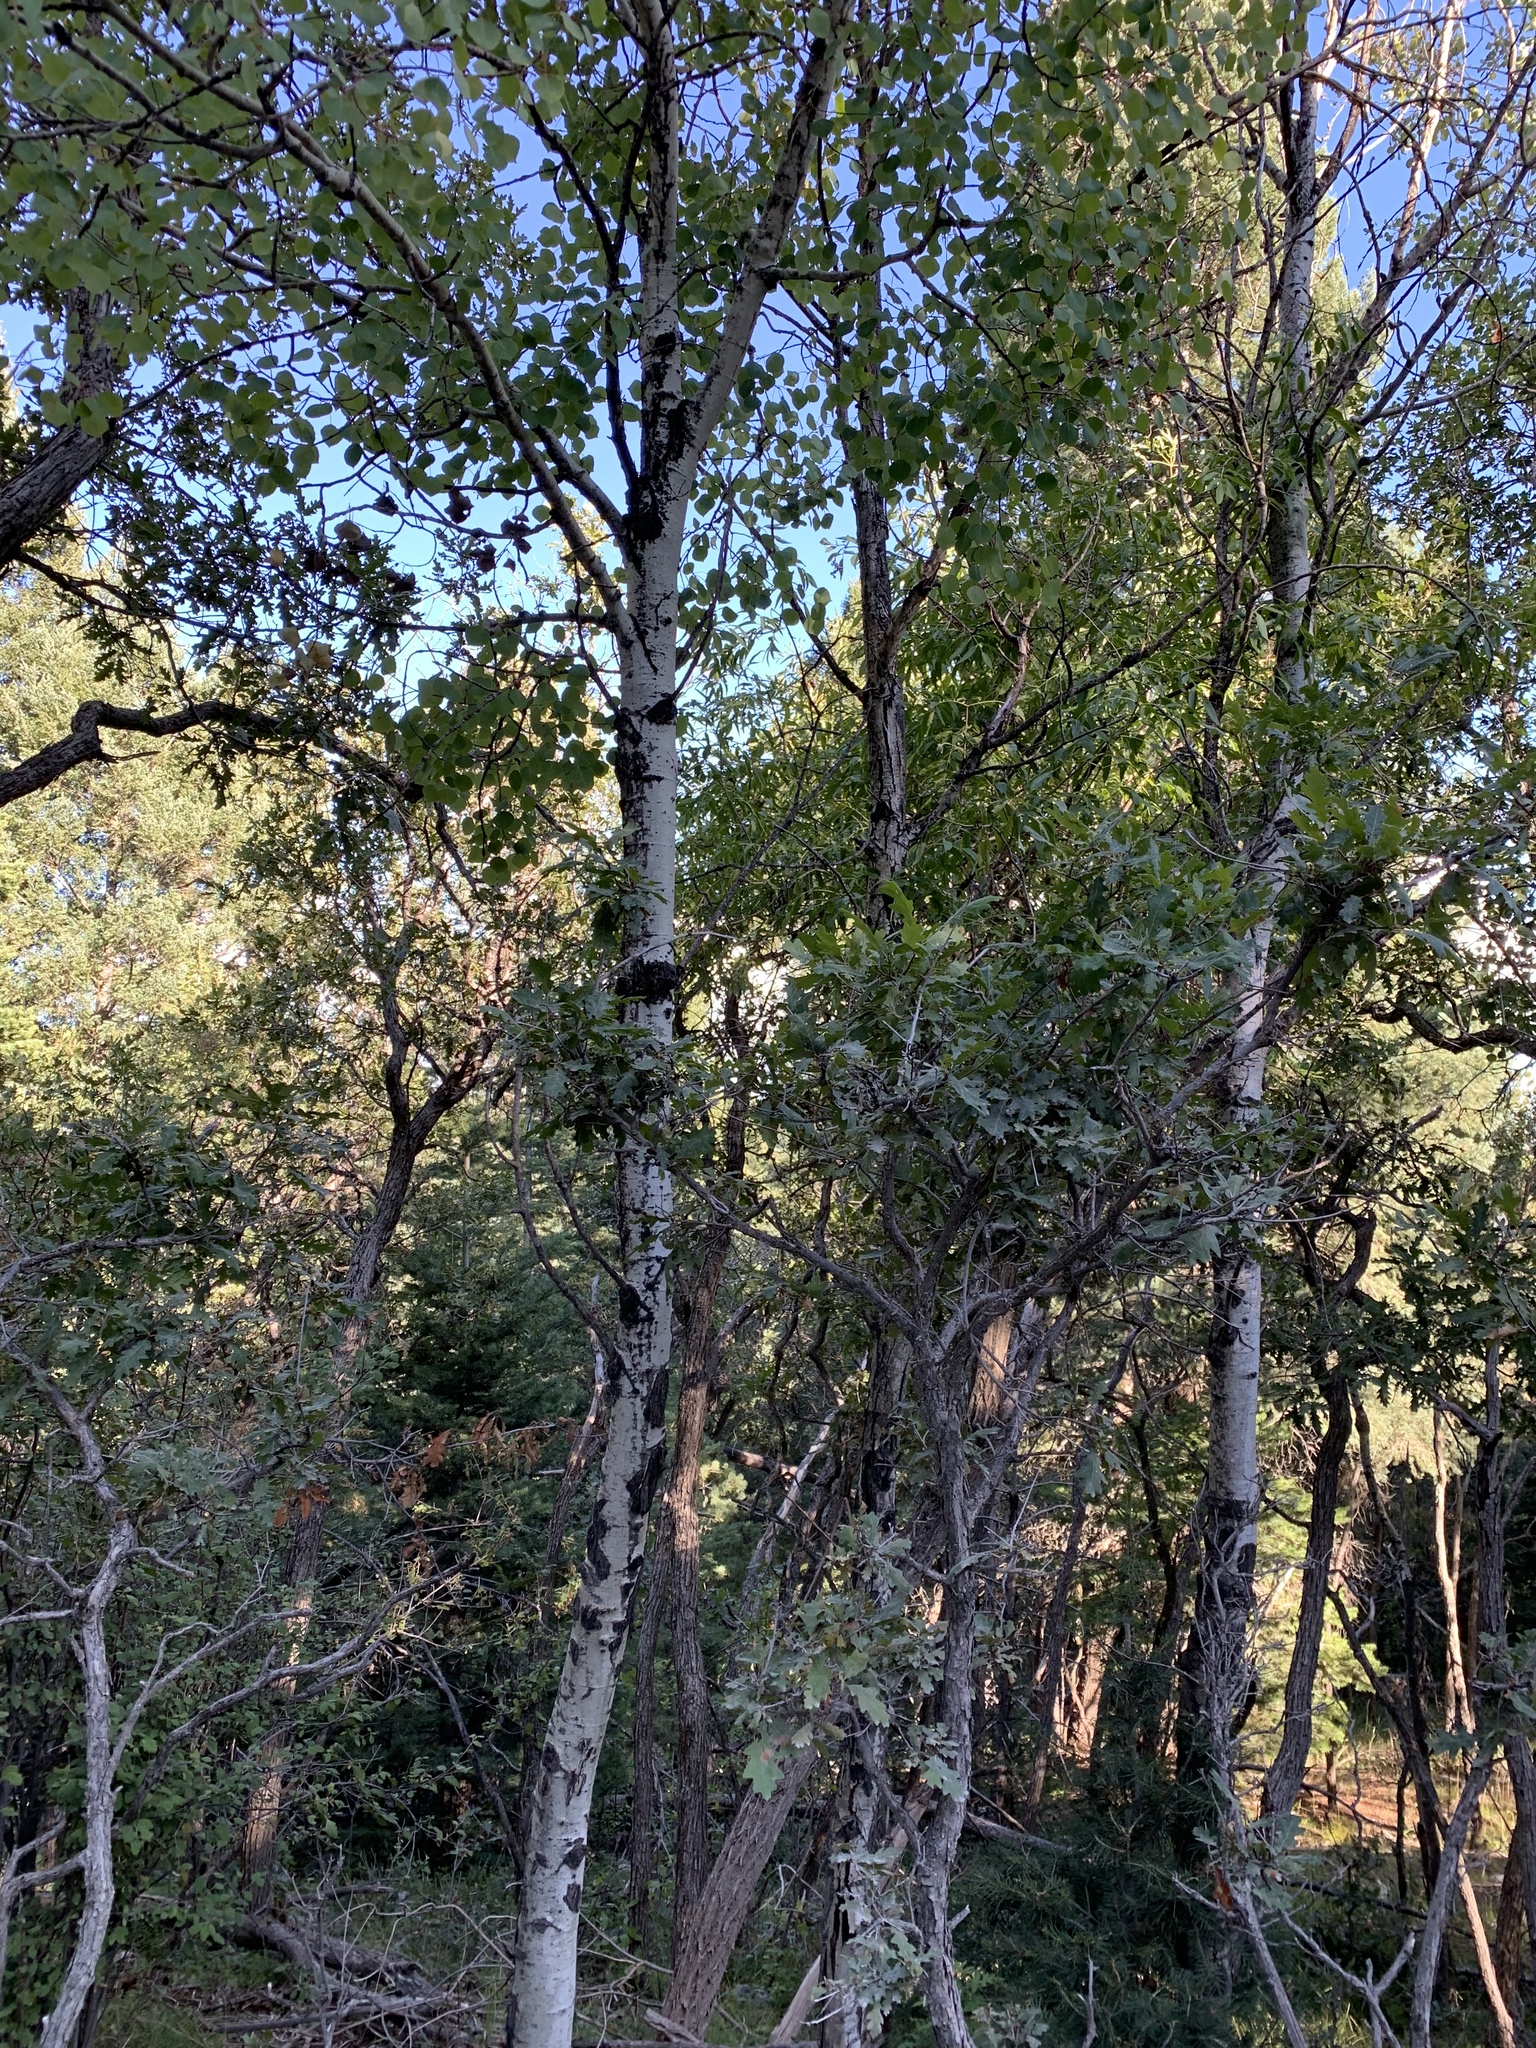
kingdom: Plantae
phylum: Tracheophyta
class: Magnoliopsida
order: Malpighiales
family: Salicaceae
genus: Populus
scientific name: Populus tremuloides
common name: Quaking aspen
